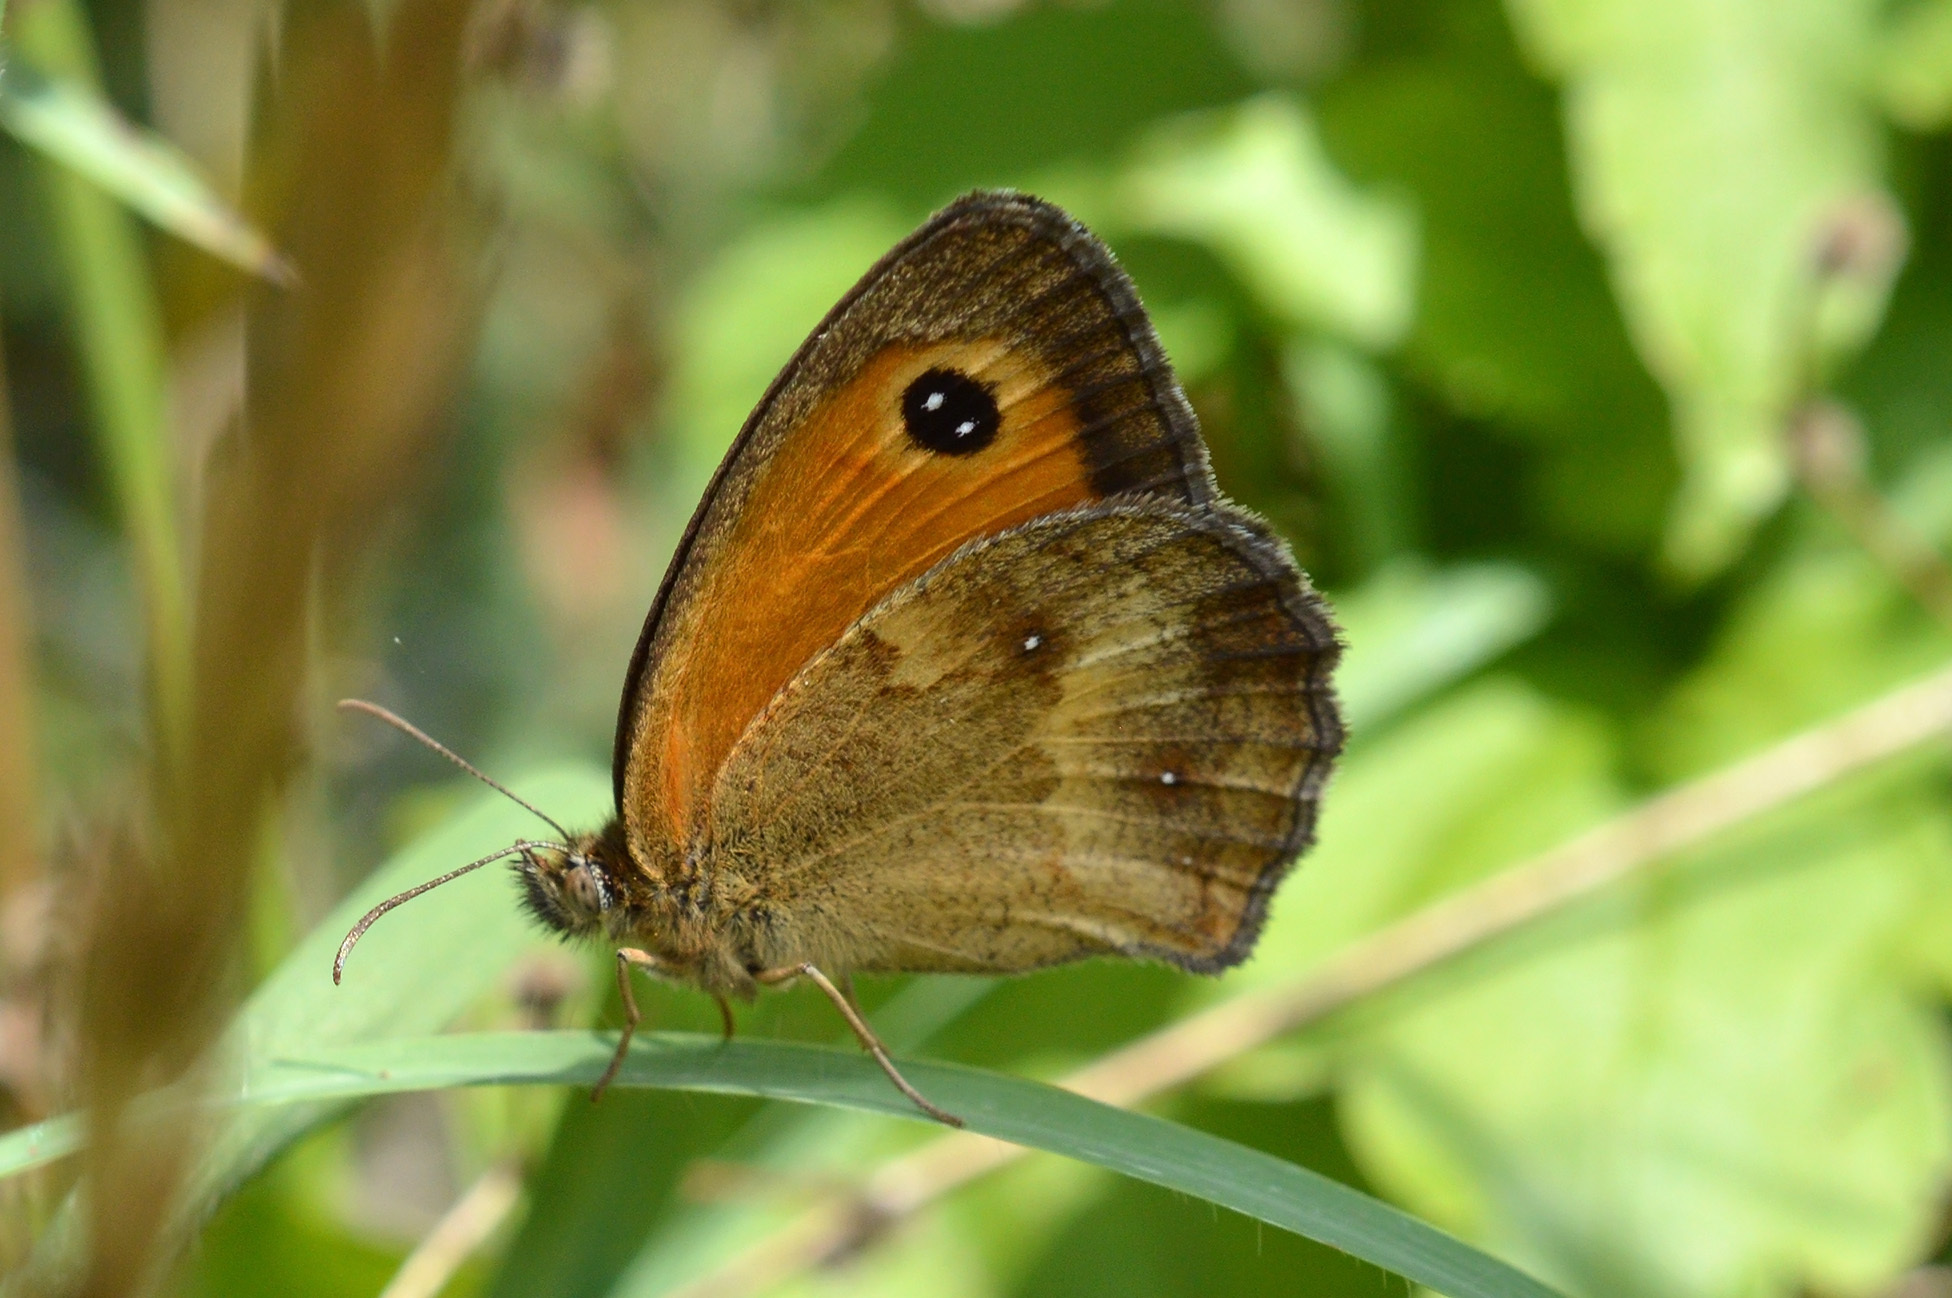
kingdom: Animalia
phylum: Arthropoda
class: Insecta
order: Lepidoptera
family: Nymphalidae
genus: Pyronia
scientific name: Pyronia tithonus
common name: Gatekeeper
